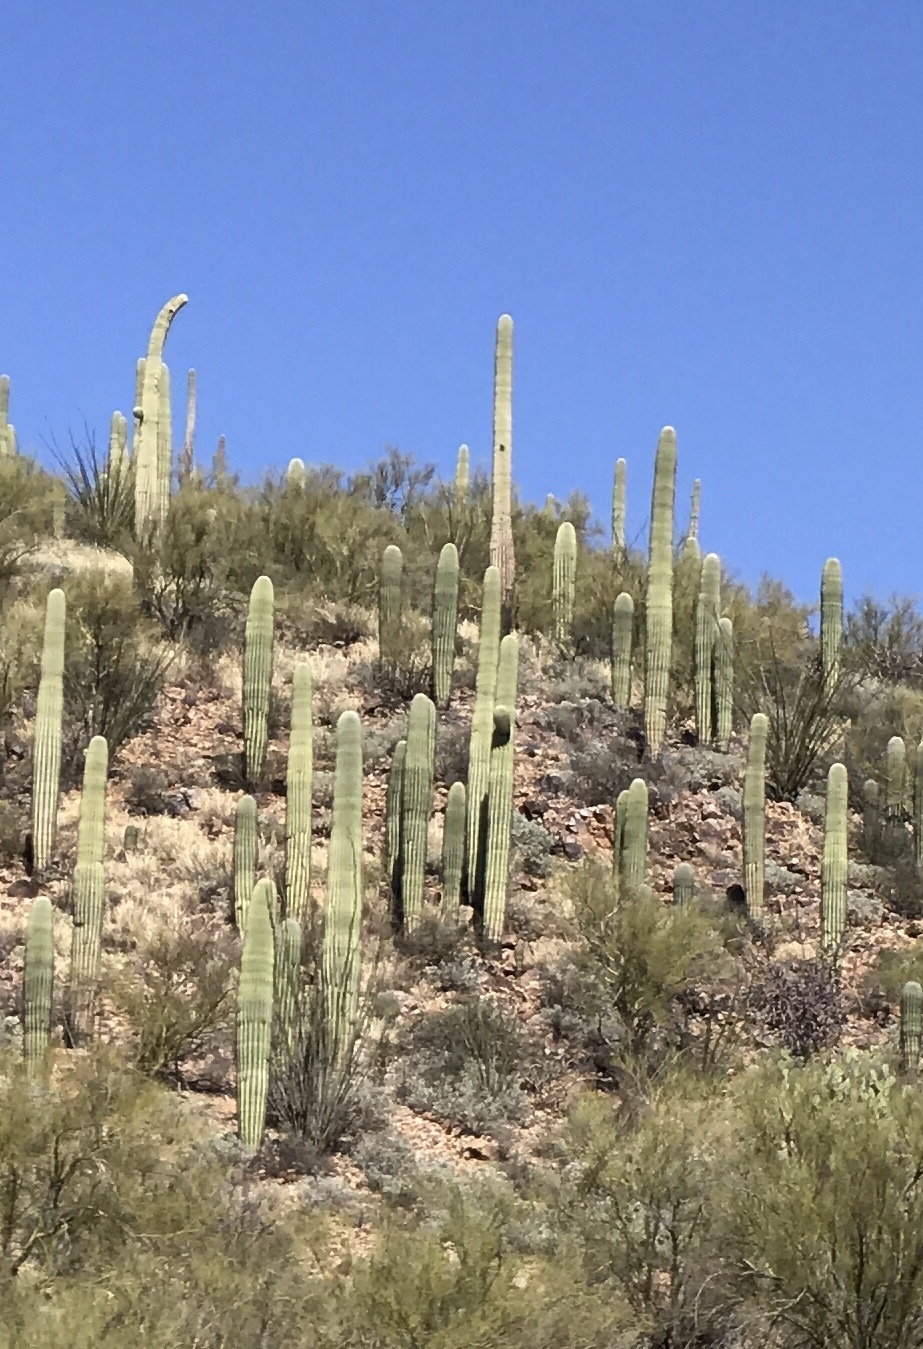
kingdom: Plantae
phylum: Tracheophyta
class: Magnoliopsida
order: Caryophyllales
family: Cactaceae
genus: Carnegiea
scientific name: Carnegiea gigantea
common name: Saguaro
